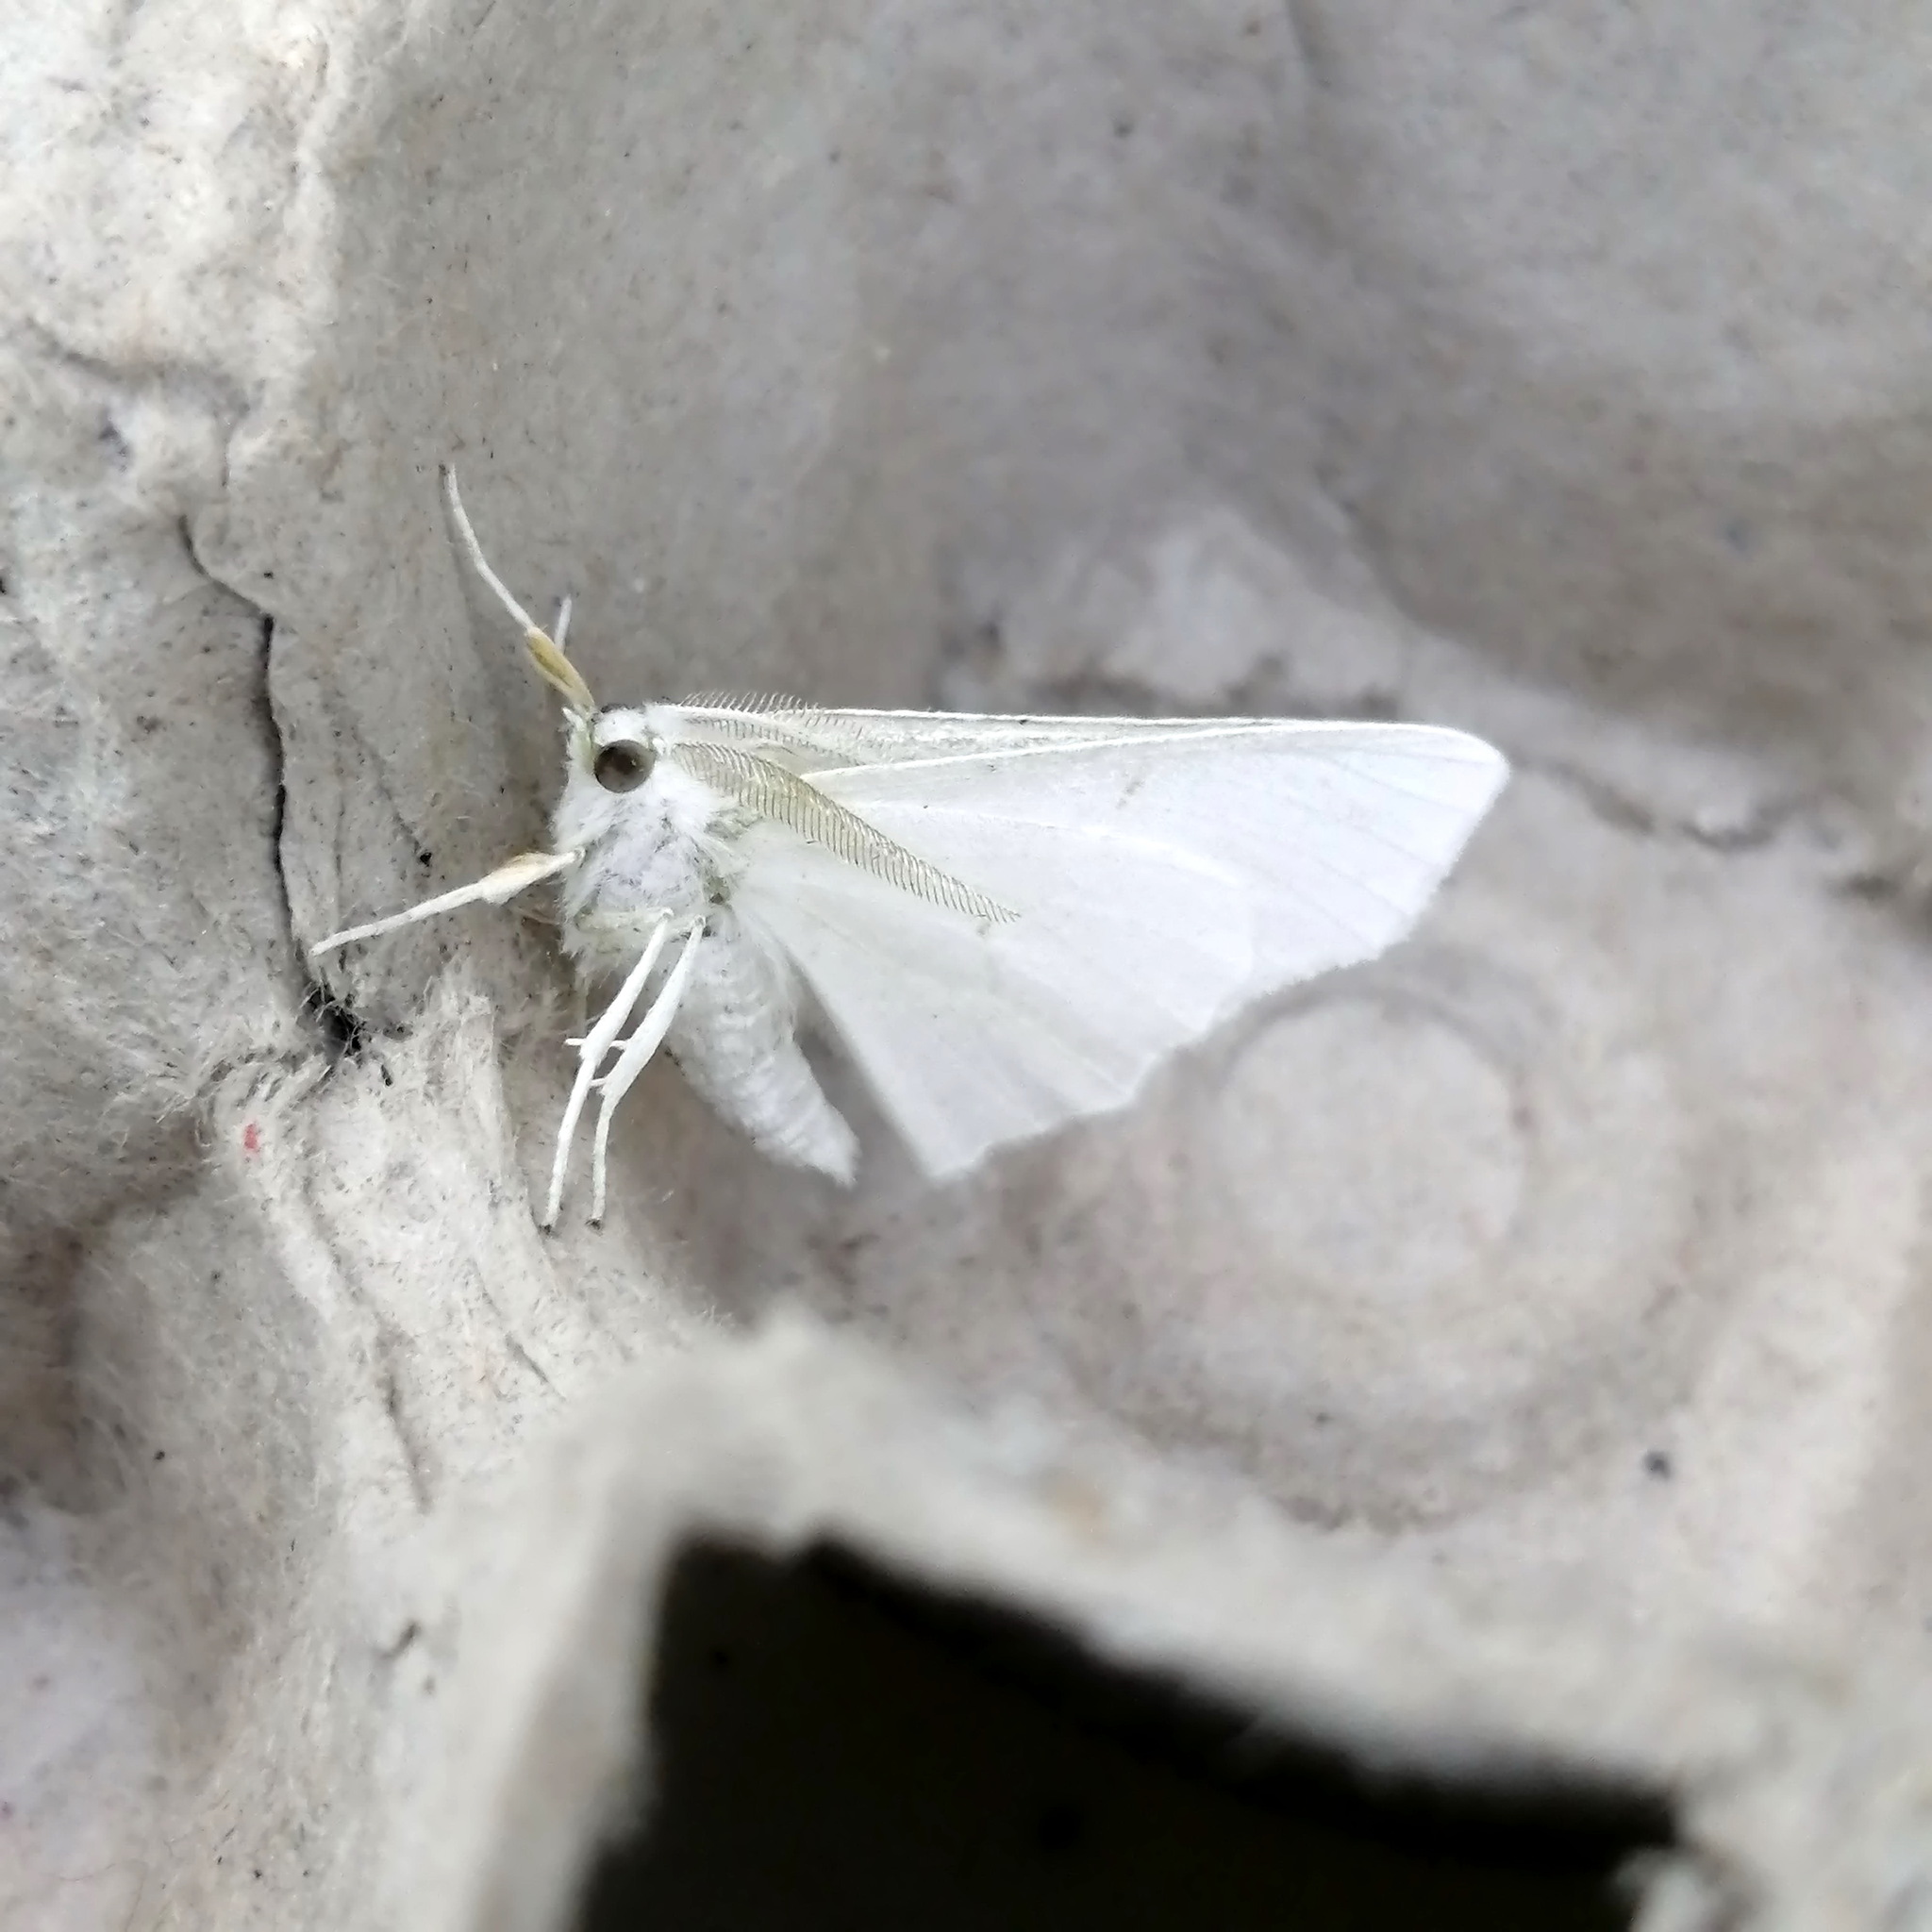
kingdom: Animalia
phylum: Arthropoda
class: Insecta
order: Lepidoptera
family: Geometridae
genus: Ennomos
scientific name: Ennomos subsignaria
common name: Elm spanworm
